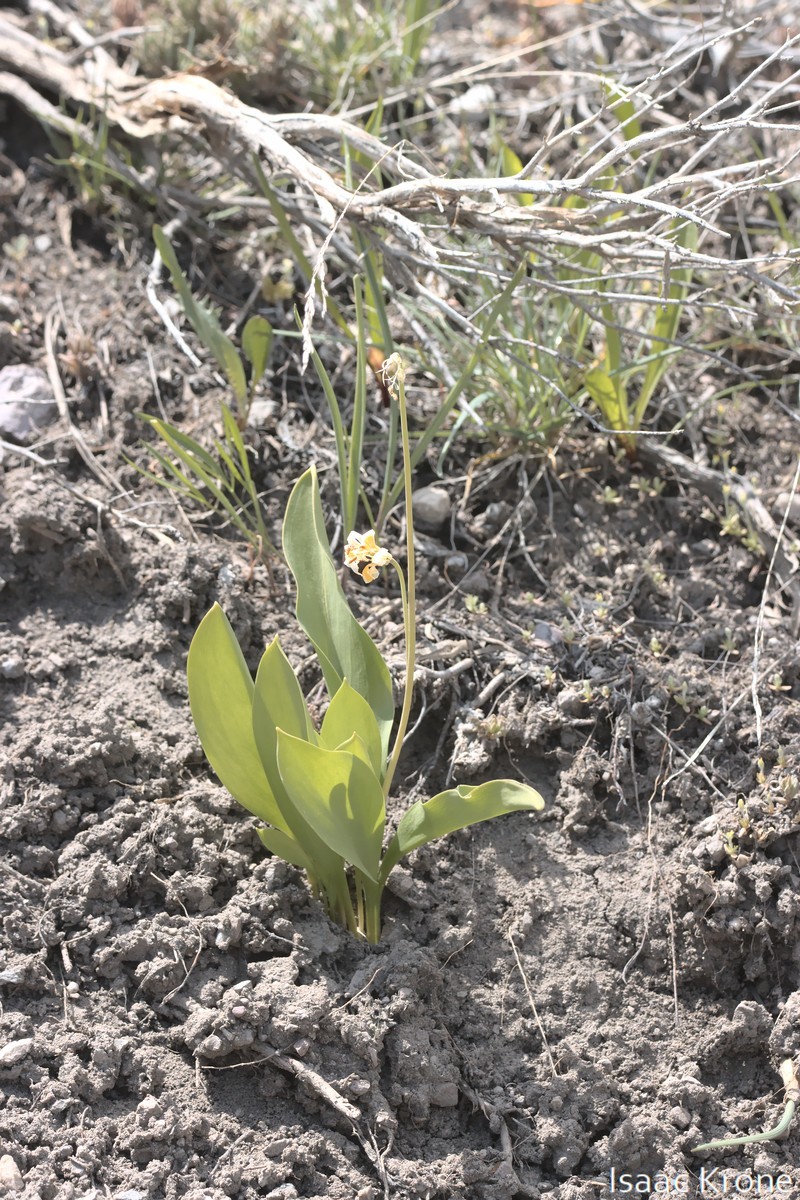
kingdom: Plantae
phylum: Tracheophyta
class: Liliopsida
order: Liliales
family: Liliaceae
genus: Erythronium
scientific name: Erythronium grandiflorum
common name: Avalanche-lily
